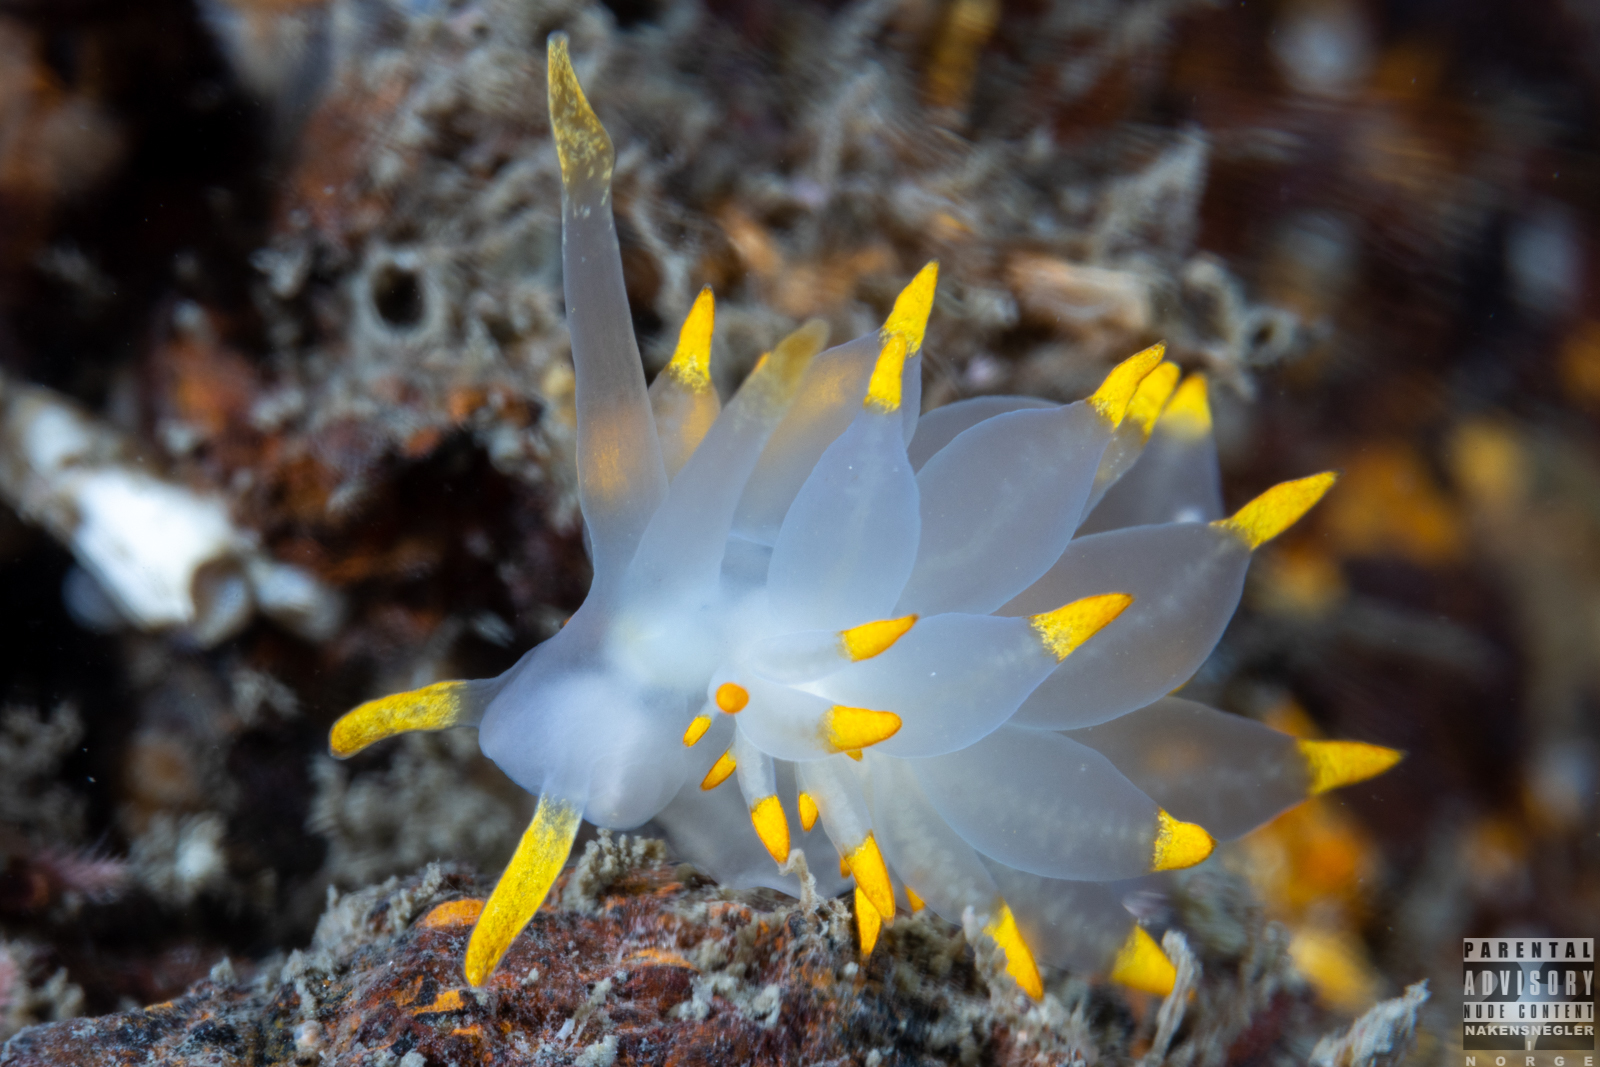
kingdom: Animalia
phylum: Mollusca
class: Gastropoda
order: Nudibranchia
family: Eubranchidae
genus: Amphorina
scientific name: Amphorina farrani
